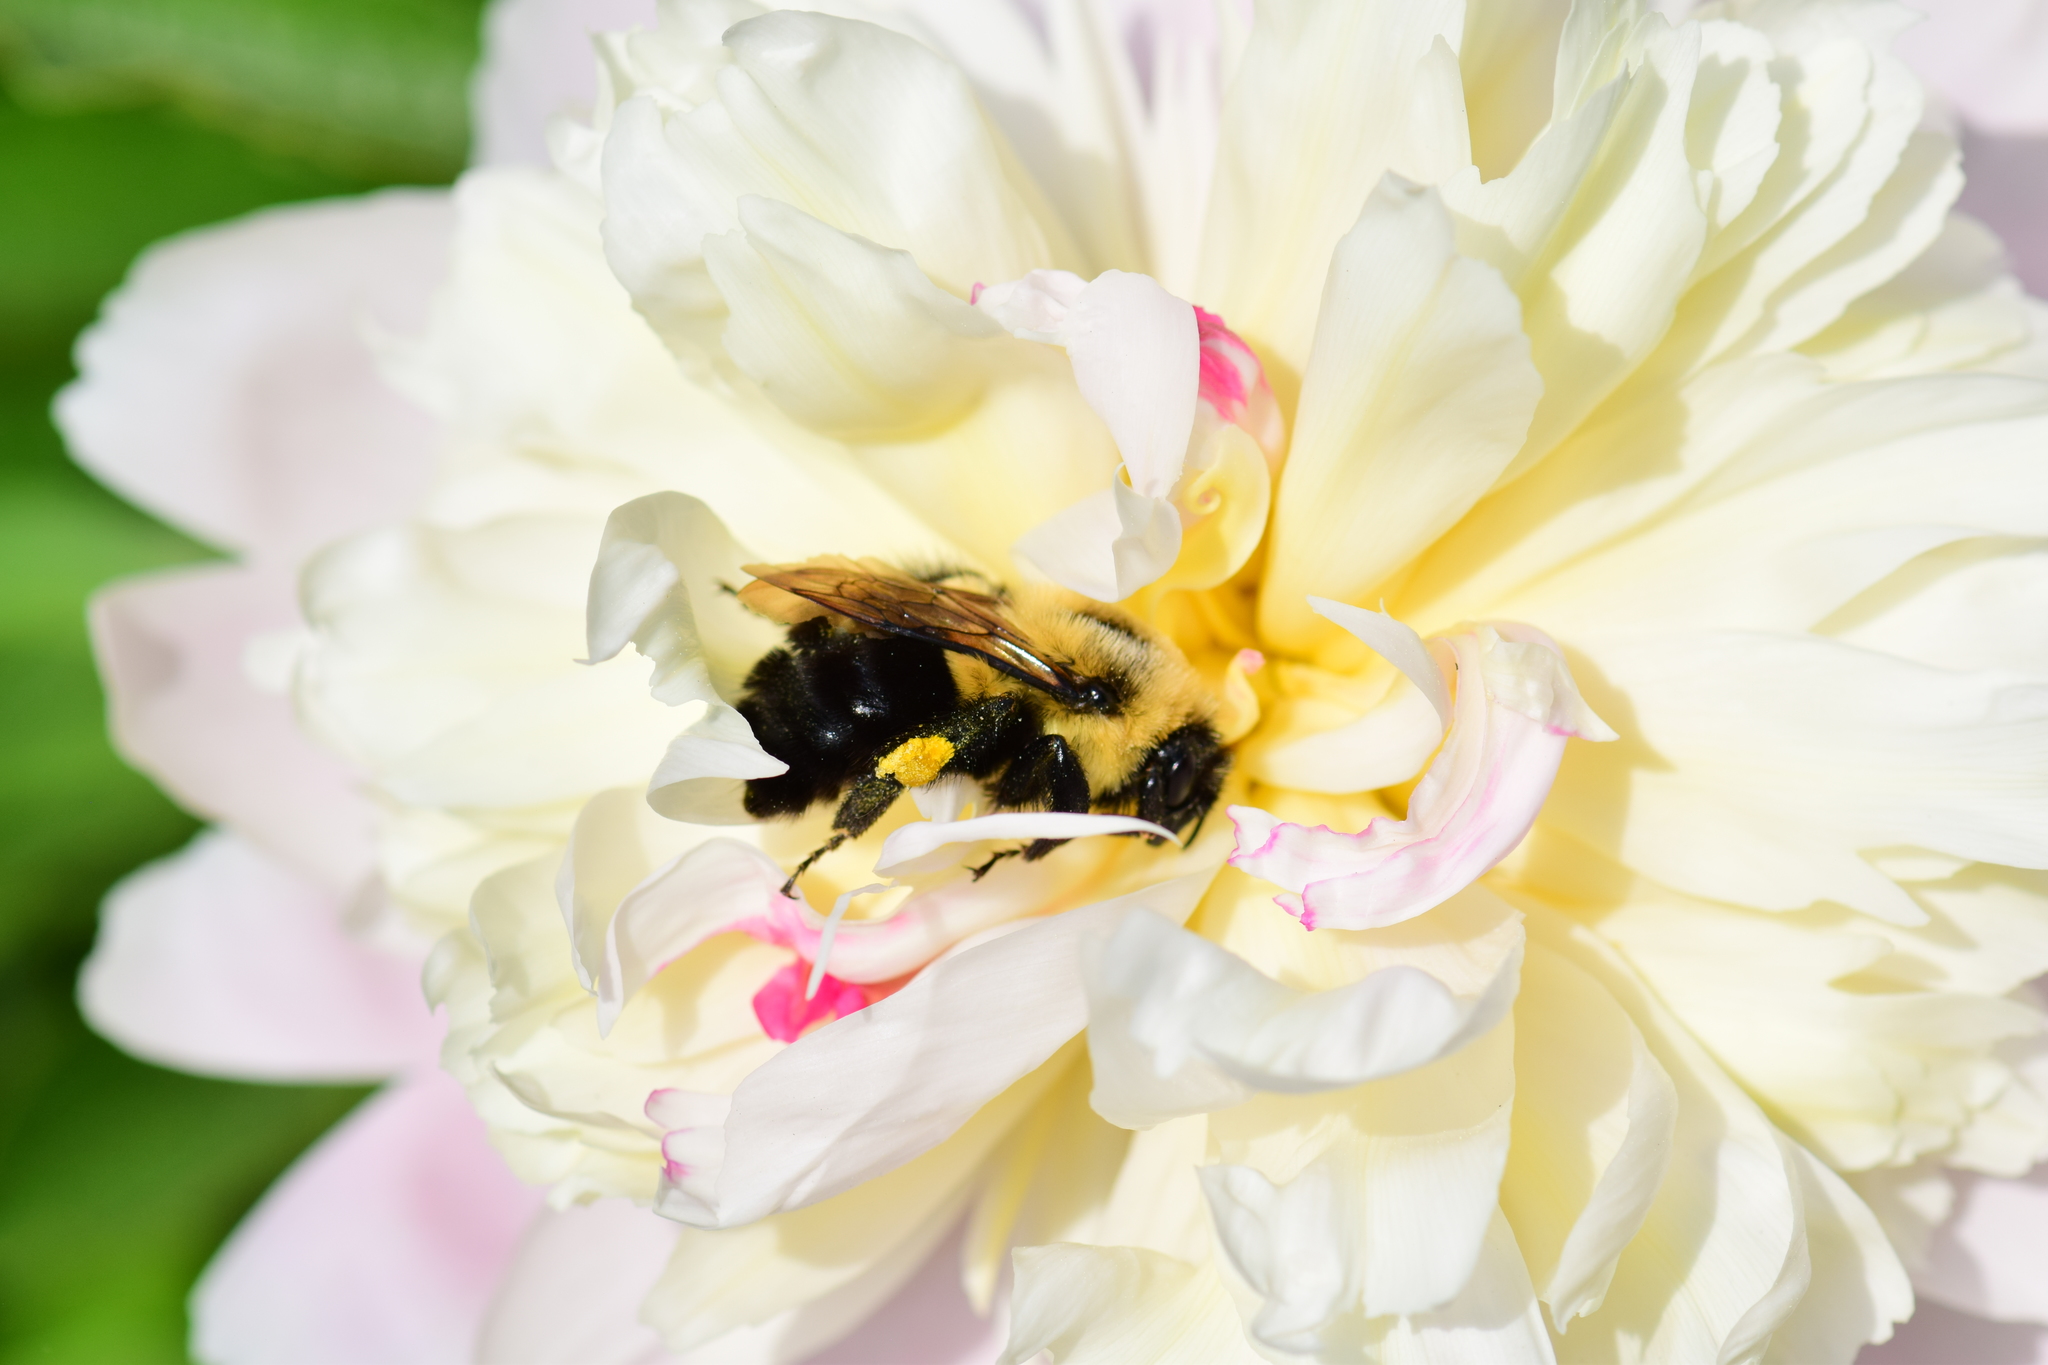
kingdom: Animalia
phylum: Arthropoda
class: Insecta
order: Hymenoptera
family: Apidae
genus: Bombus
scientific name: Bombus impatiens
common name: Common eastern bumble bee
